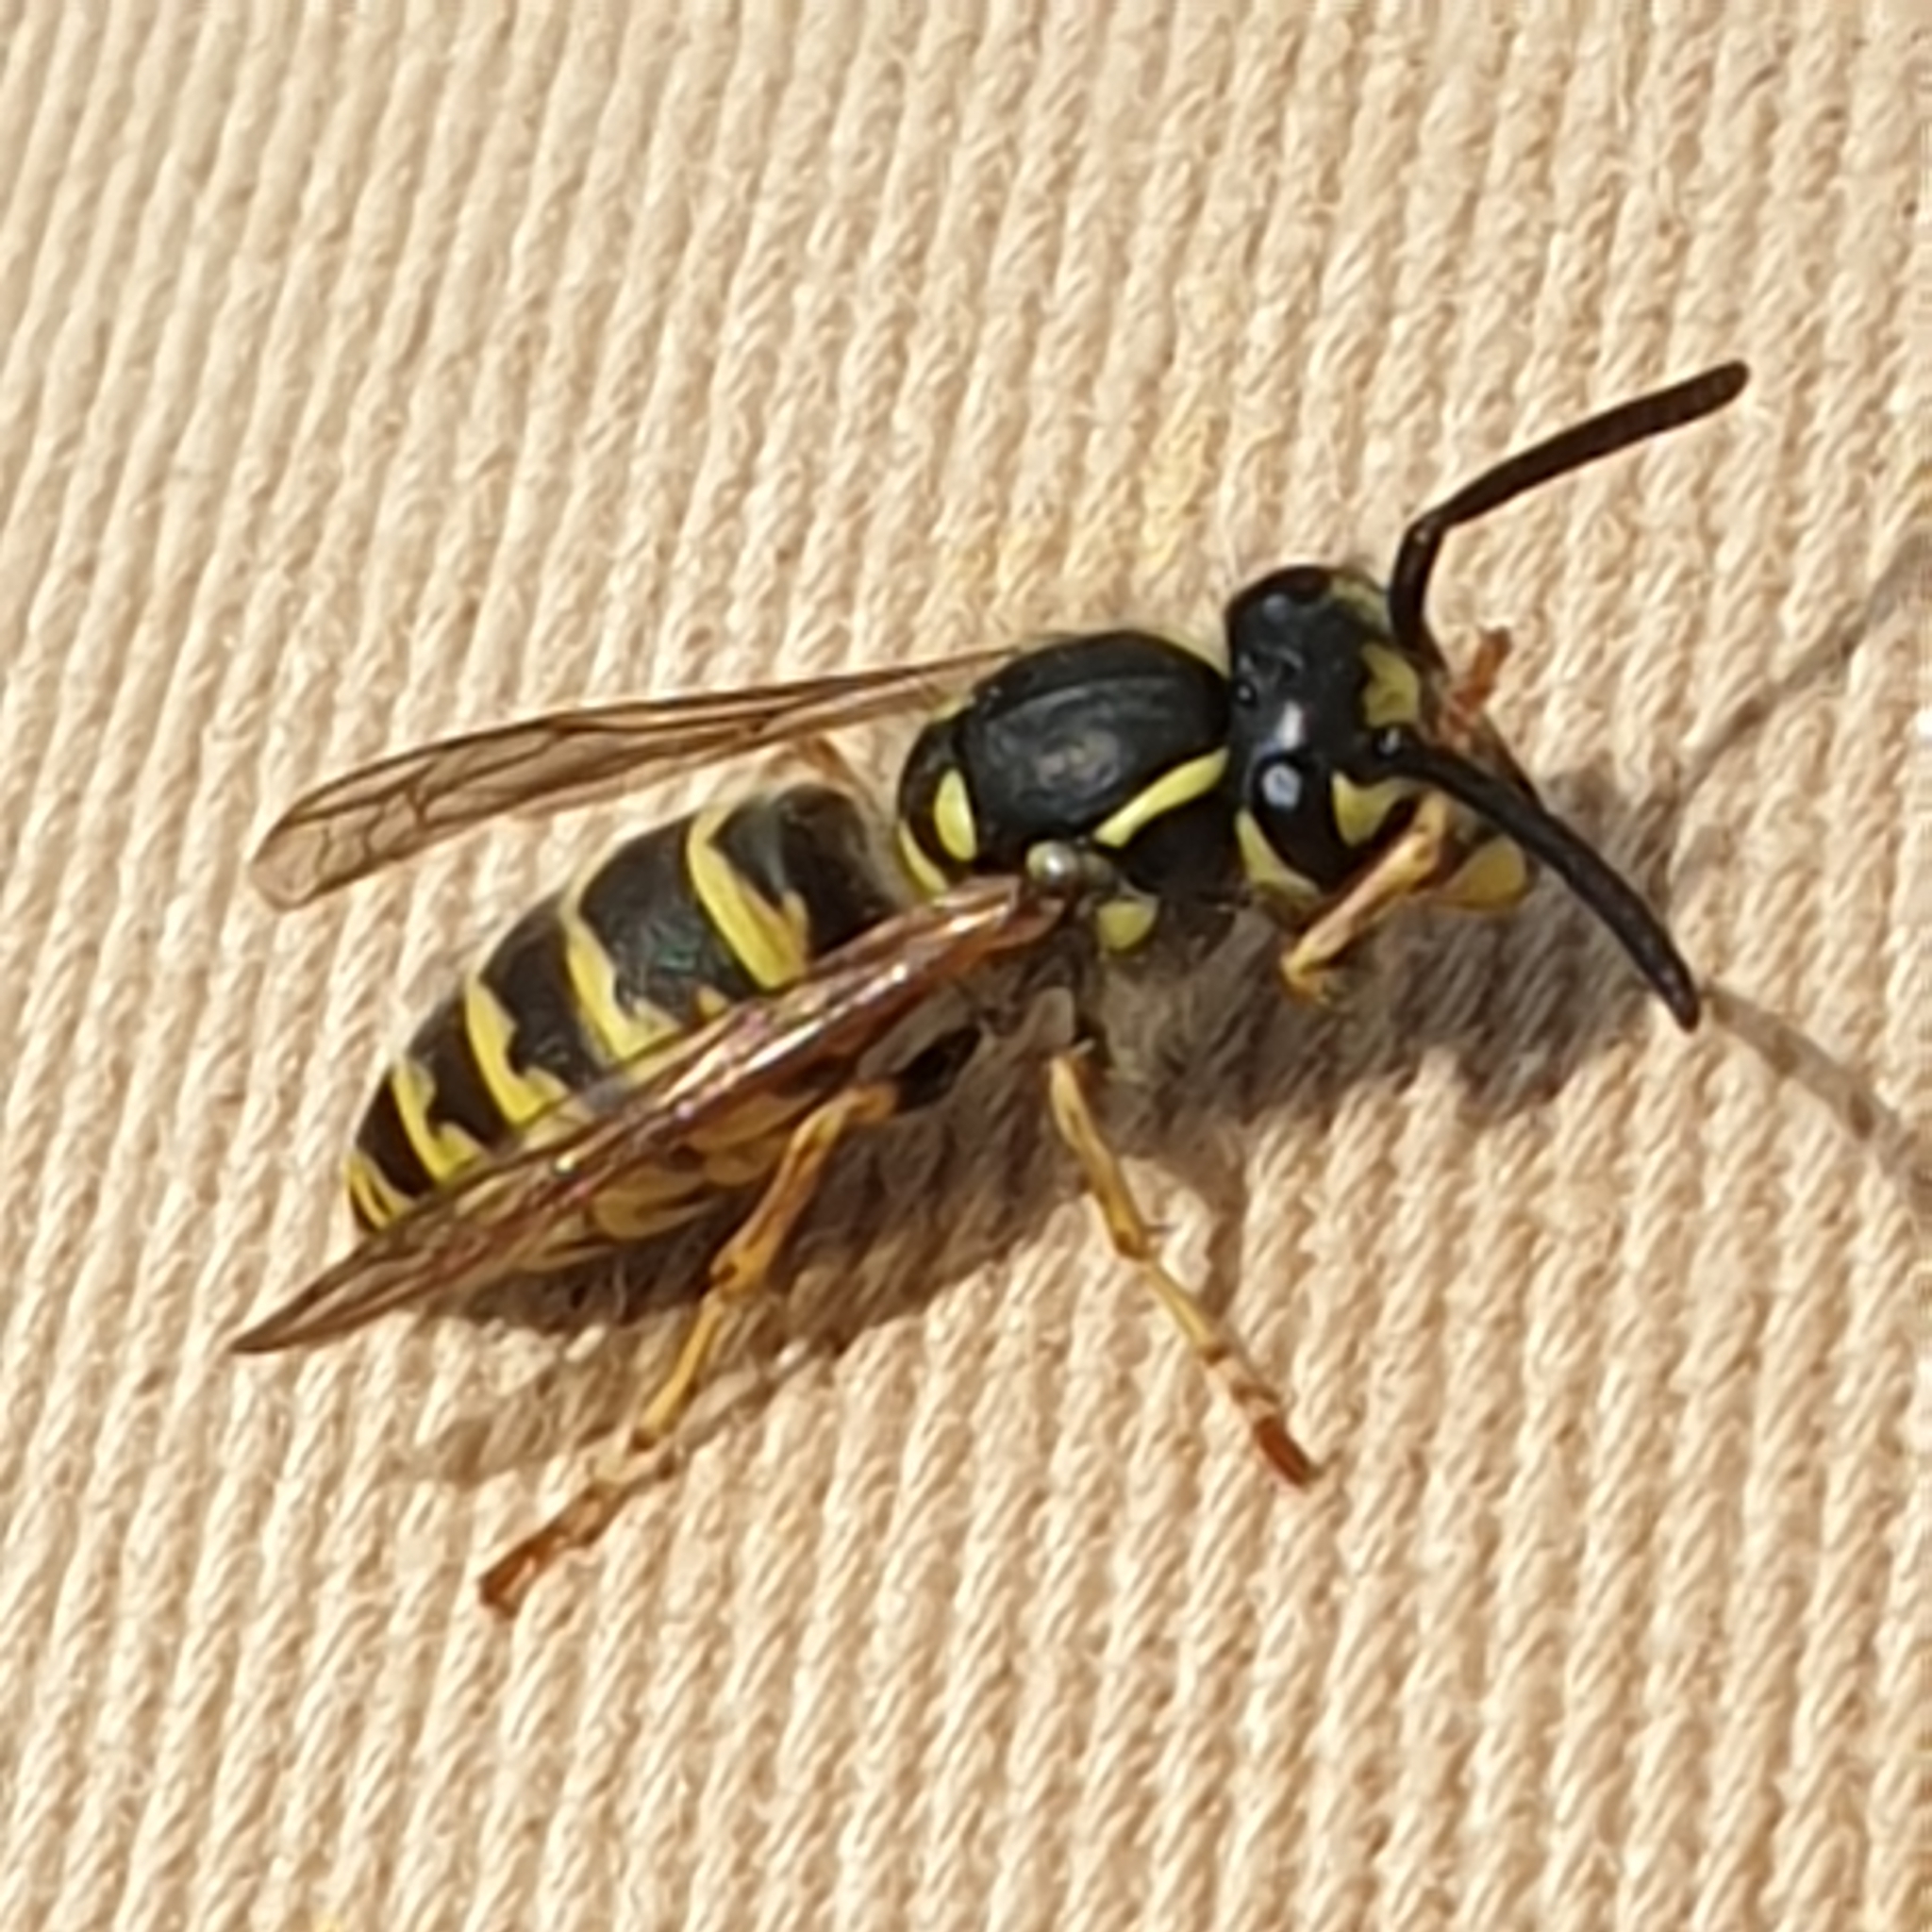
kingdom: Animalia
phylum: Arthropoda
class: Insecta
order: Hymenoptera
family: Vespidae
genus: Vespula
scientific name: Vespula vulgaris
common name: Common wasp
